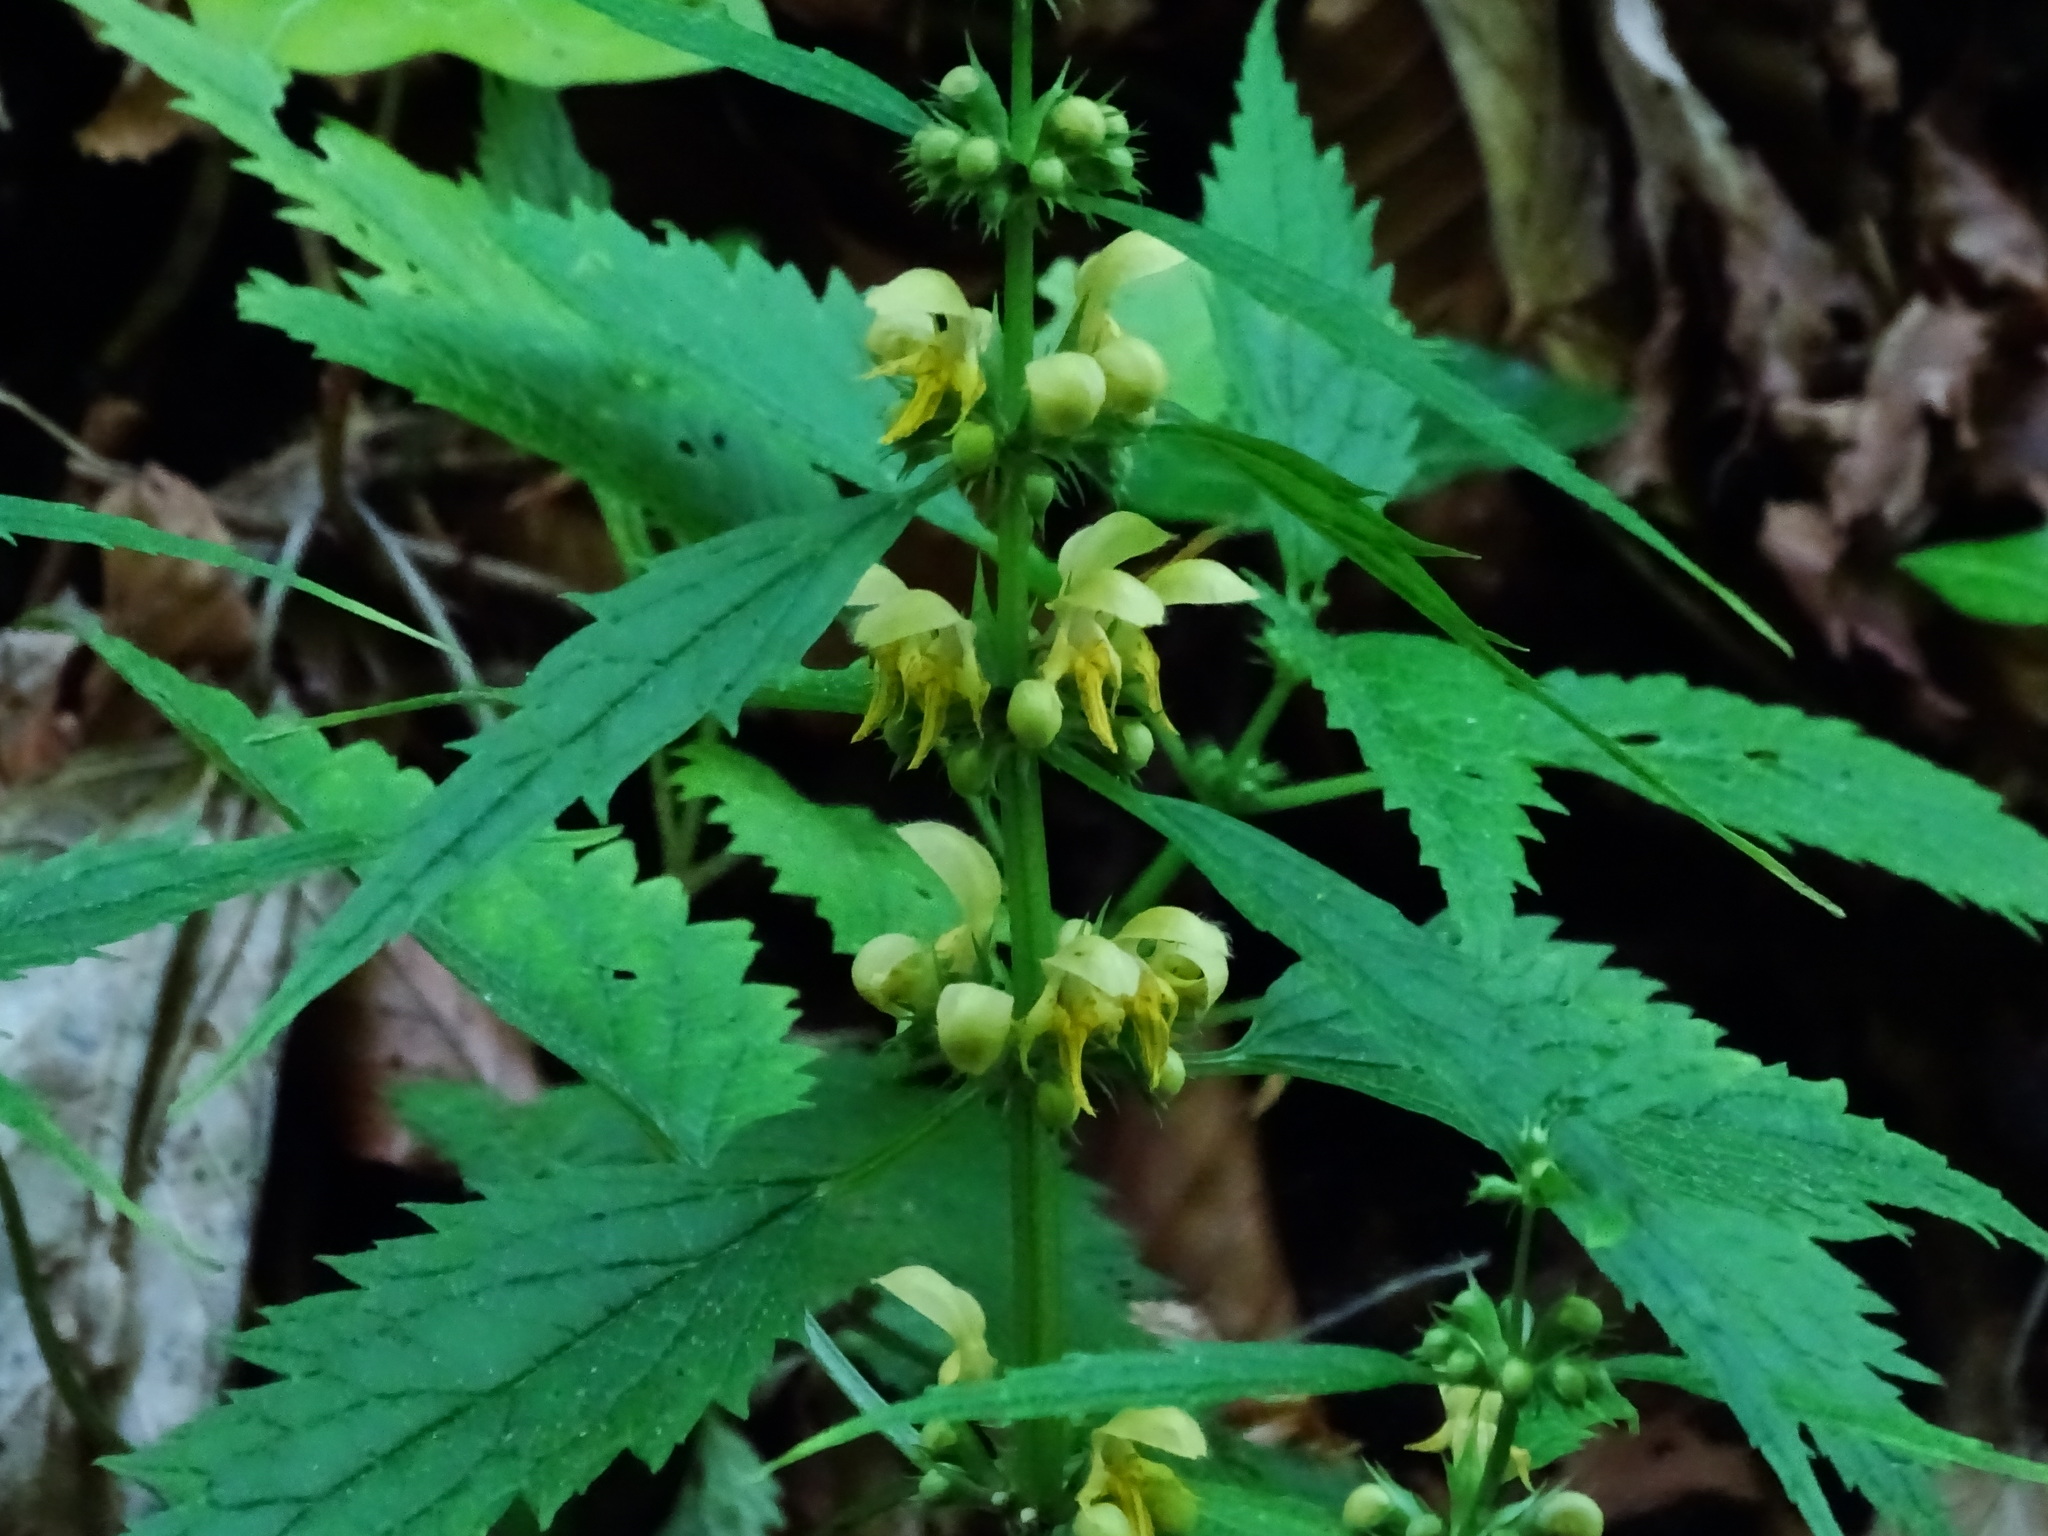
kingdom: Plantae
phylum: Tracheophyta
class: Magnoliopsida
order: Lamiales
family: Lamiaceae
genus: Lamium
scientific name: Lamium galeobdolon
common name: Yellow archangel
